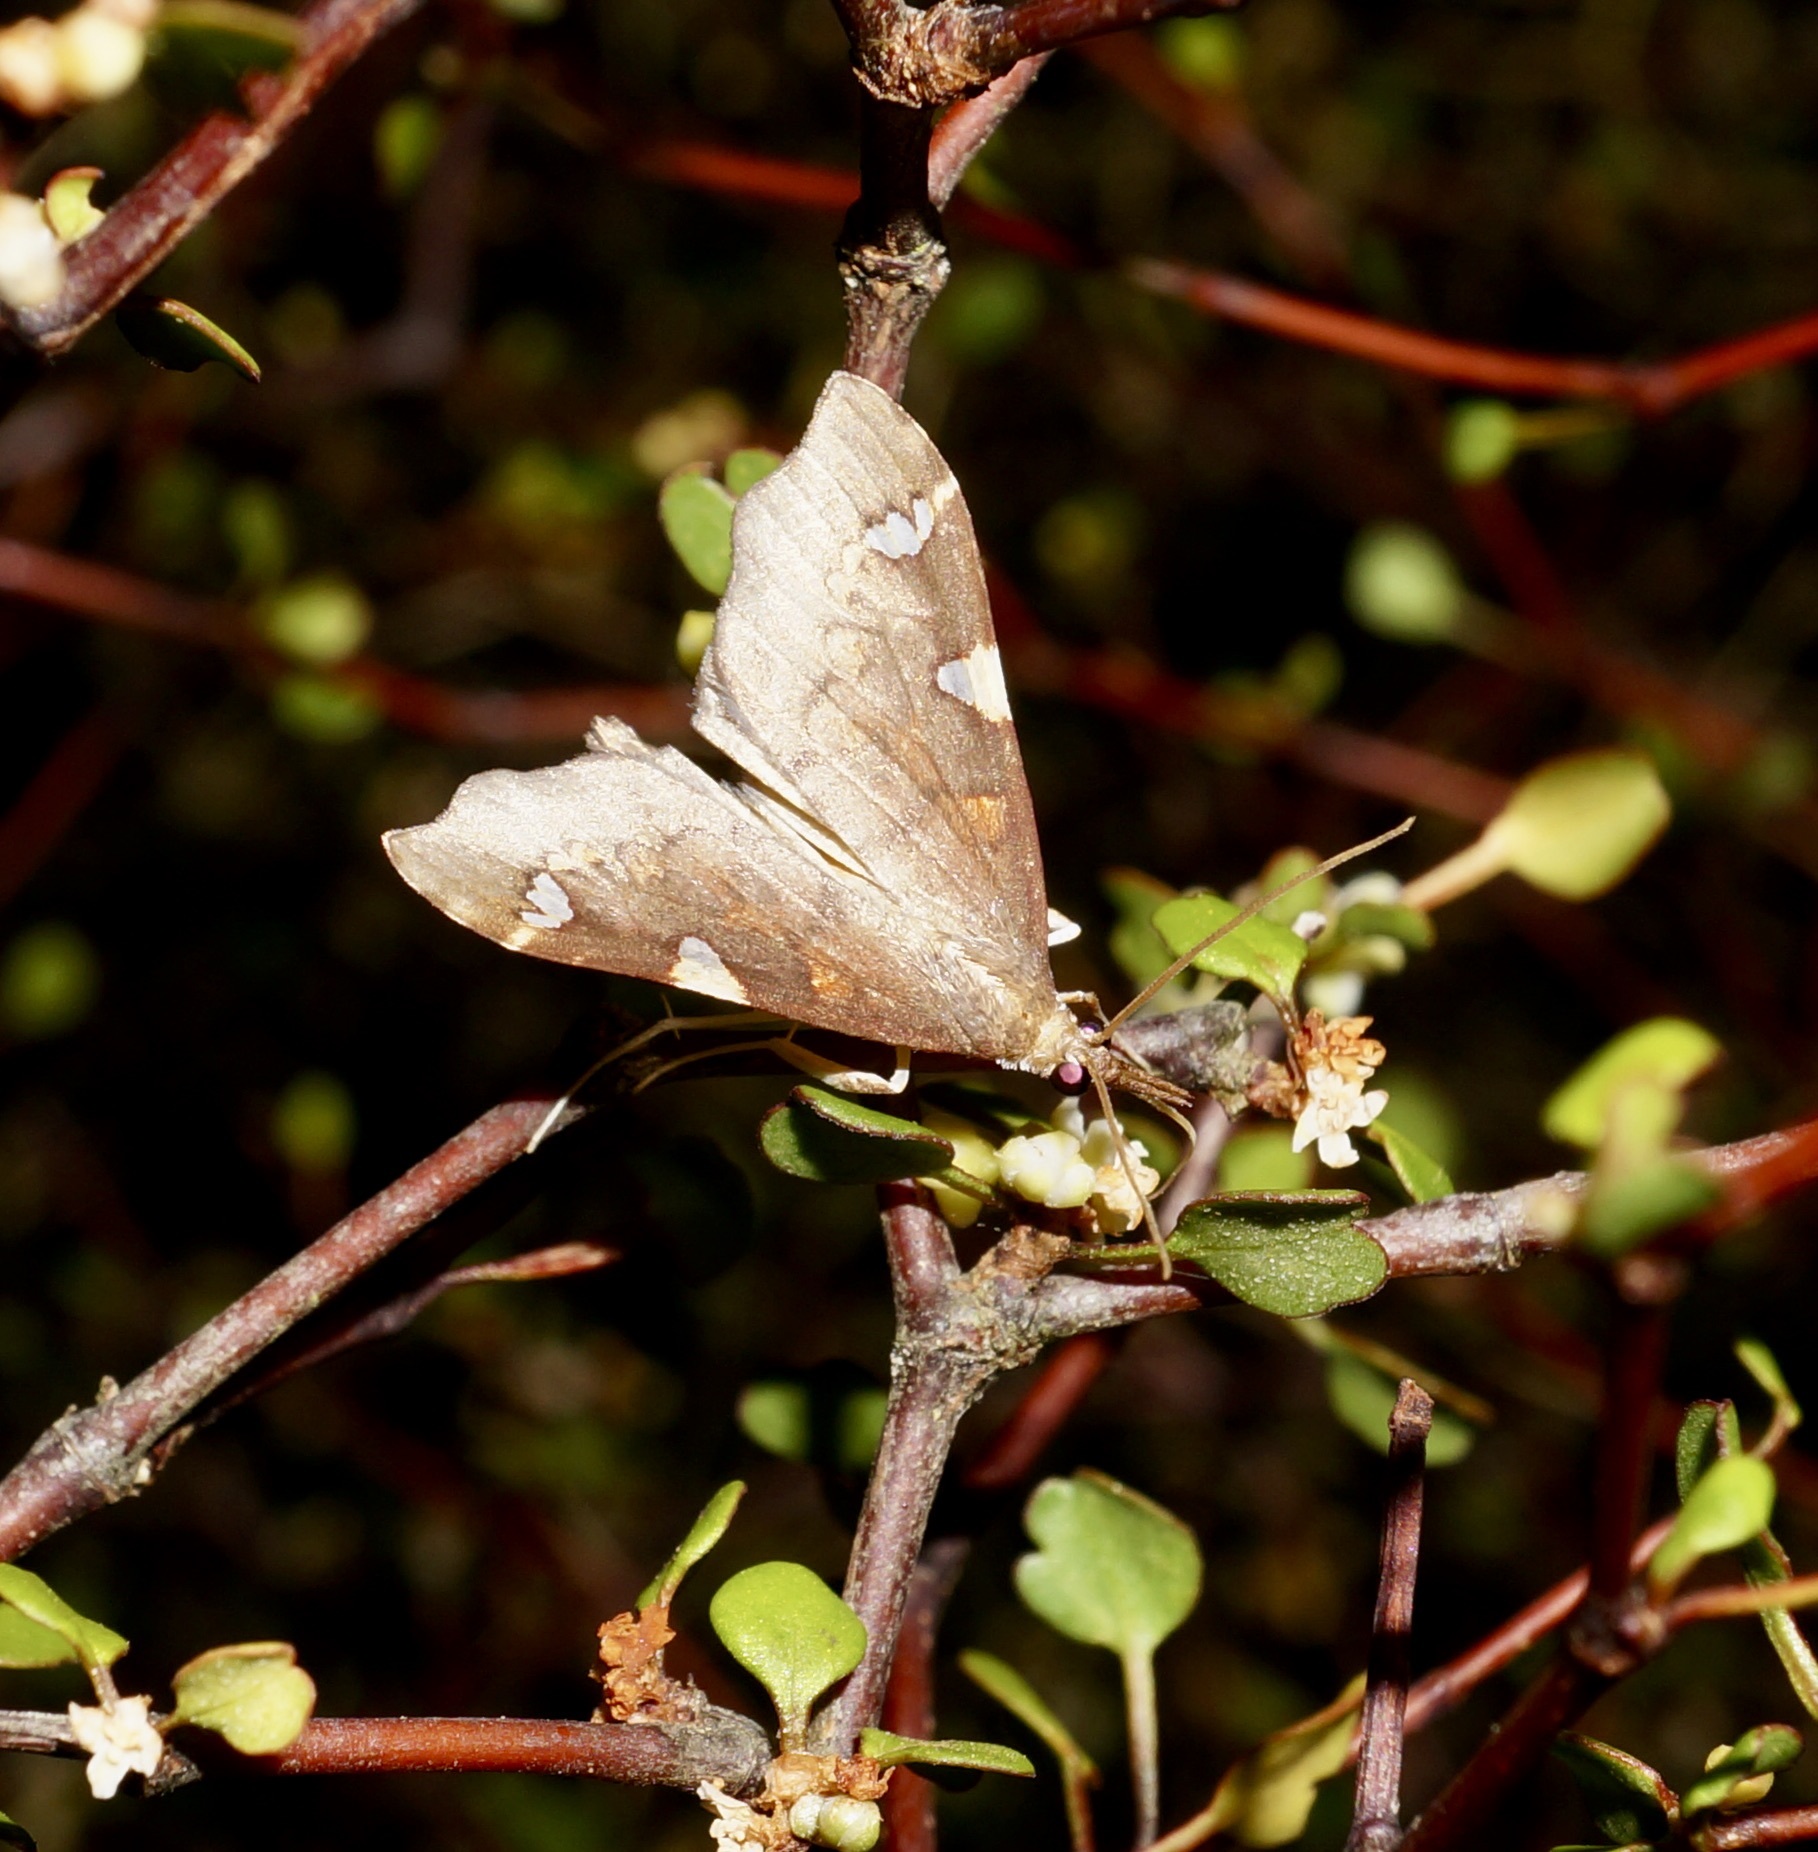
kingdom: Animalia
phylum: Arthropoda
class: Insecta
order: Lepidoptera
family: Crambidae
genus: Deana
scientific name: Deana hybreasalis
